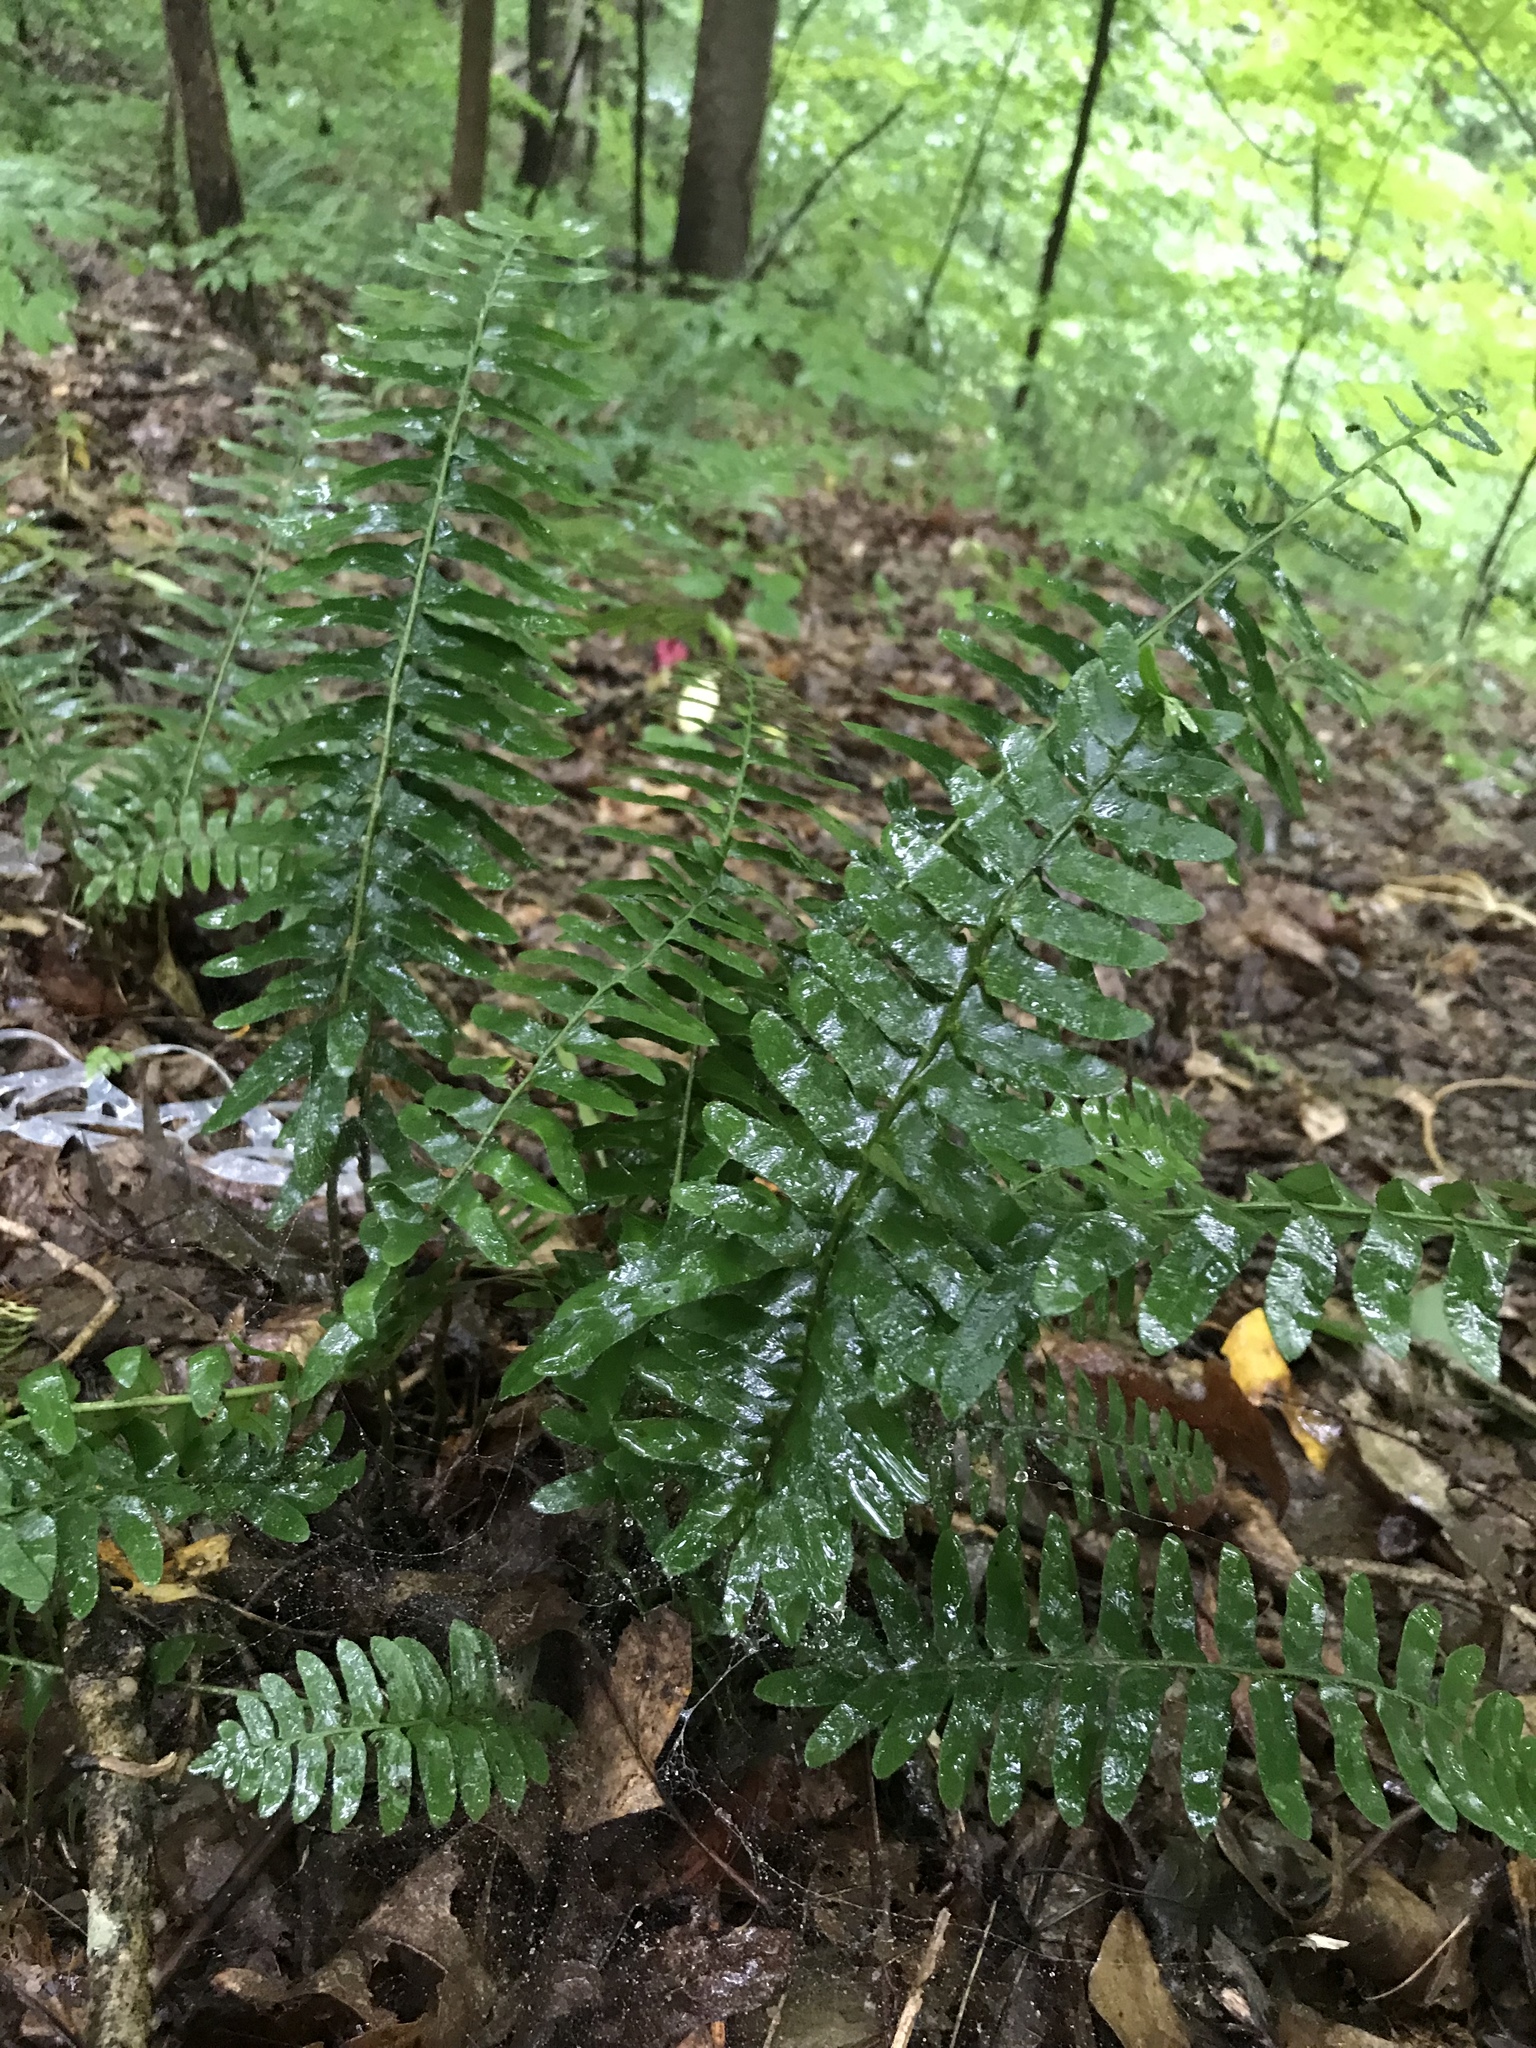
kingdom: Plantae
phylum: Tracheophyta
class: Polypodiopsida
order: Polypodiales
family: Dryopteridaceae
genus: Polystichum
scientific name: Polystichum acrostichoides
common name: Christmas fern
